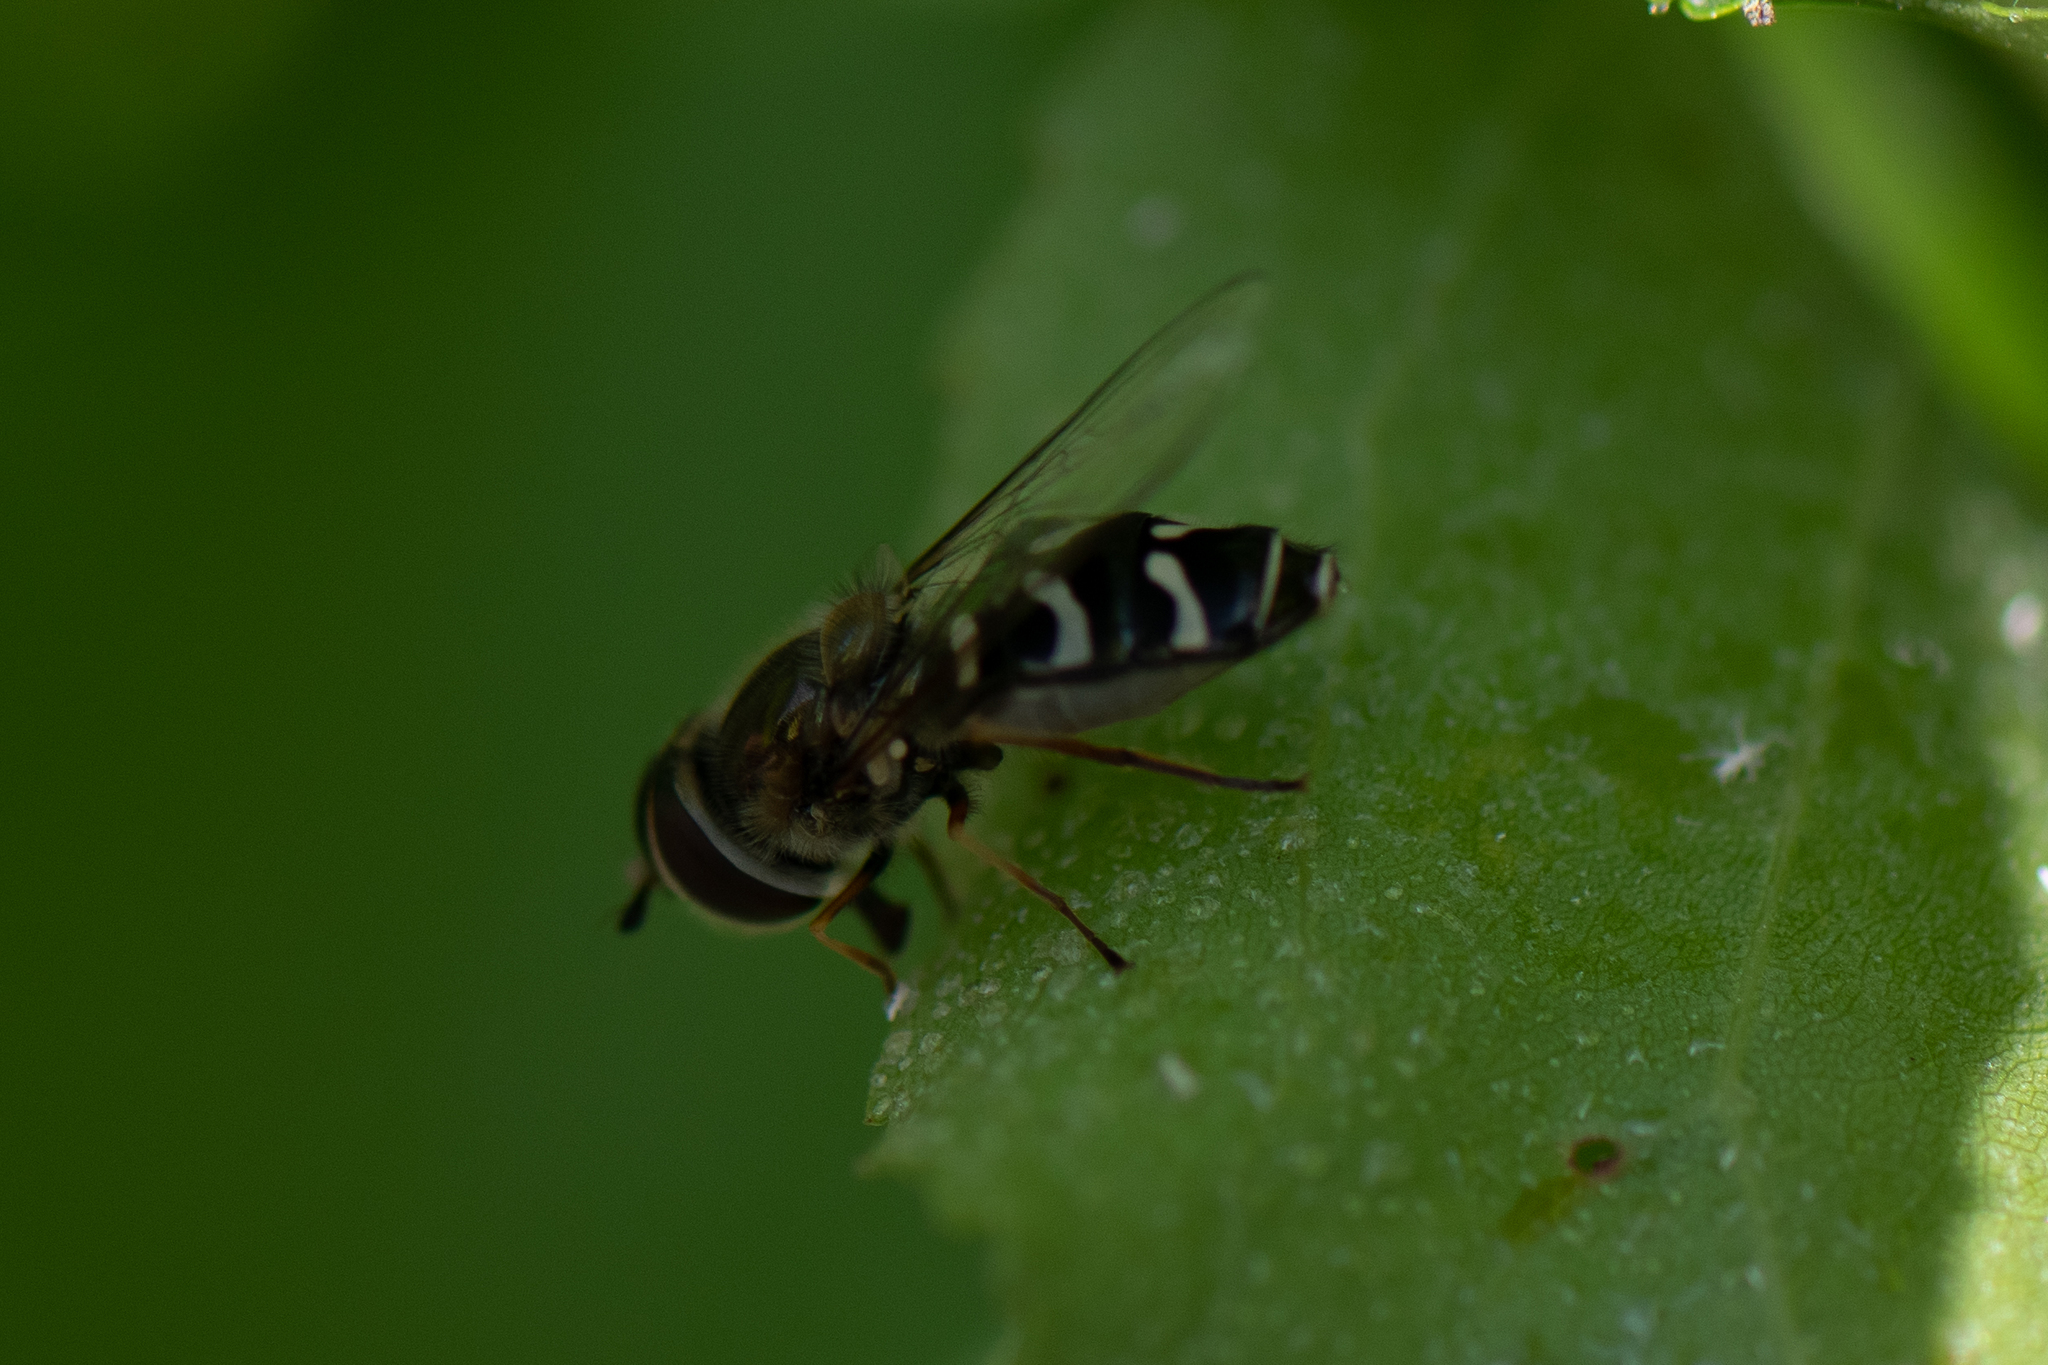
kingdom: Animalia
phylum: Arthropoda
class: Insecta
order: Diptera
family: Syrphidae
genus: Scaeva
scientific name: Scaeva affinis
